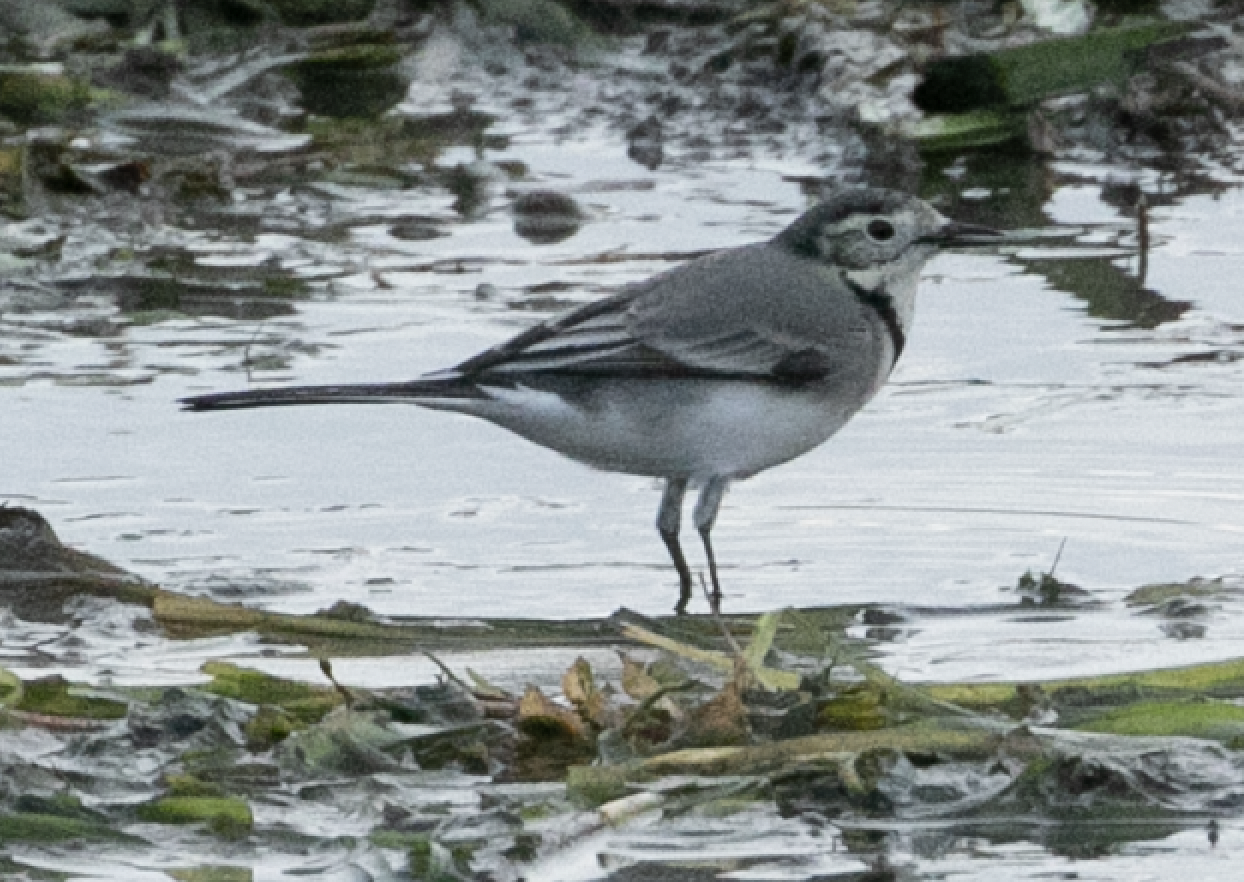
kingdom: Animalia
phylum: Chordata
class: Aves
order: Passeriformes
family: Motacillidae
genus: Motacilla
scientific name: Motacilla alba
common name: White wagtail
